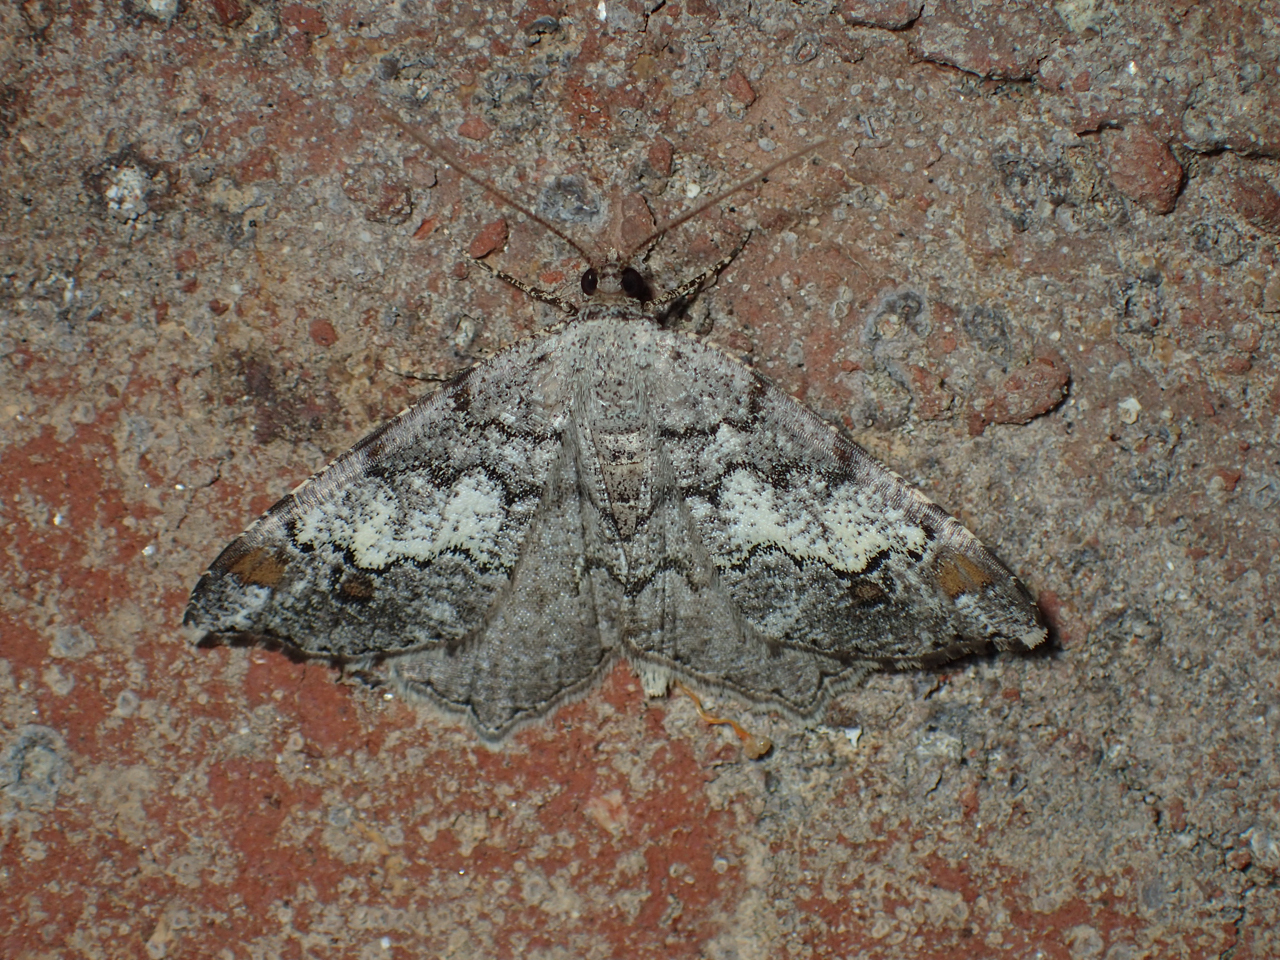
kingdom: Animalia
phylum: Arthropoda
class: Insecta
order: Lepidoptera
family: Geometridae
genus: Macaria
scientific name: Macaria granitata
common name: Granite moth
